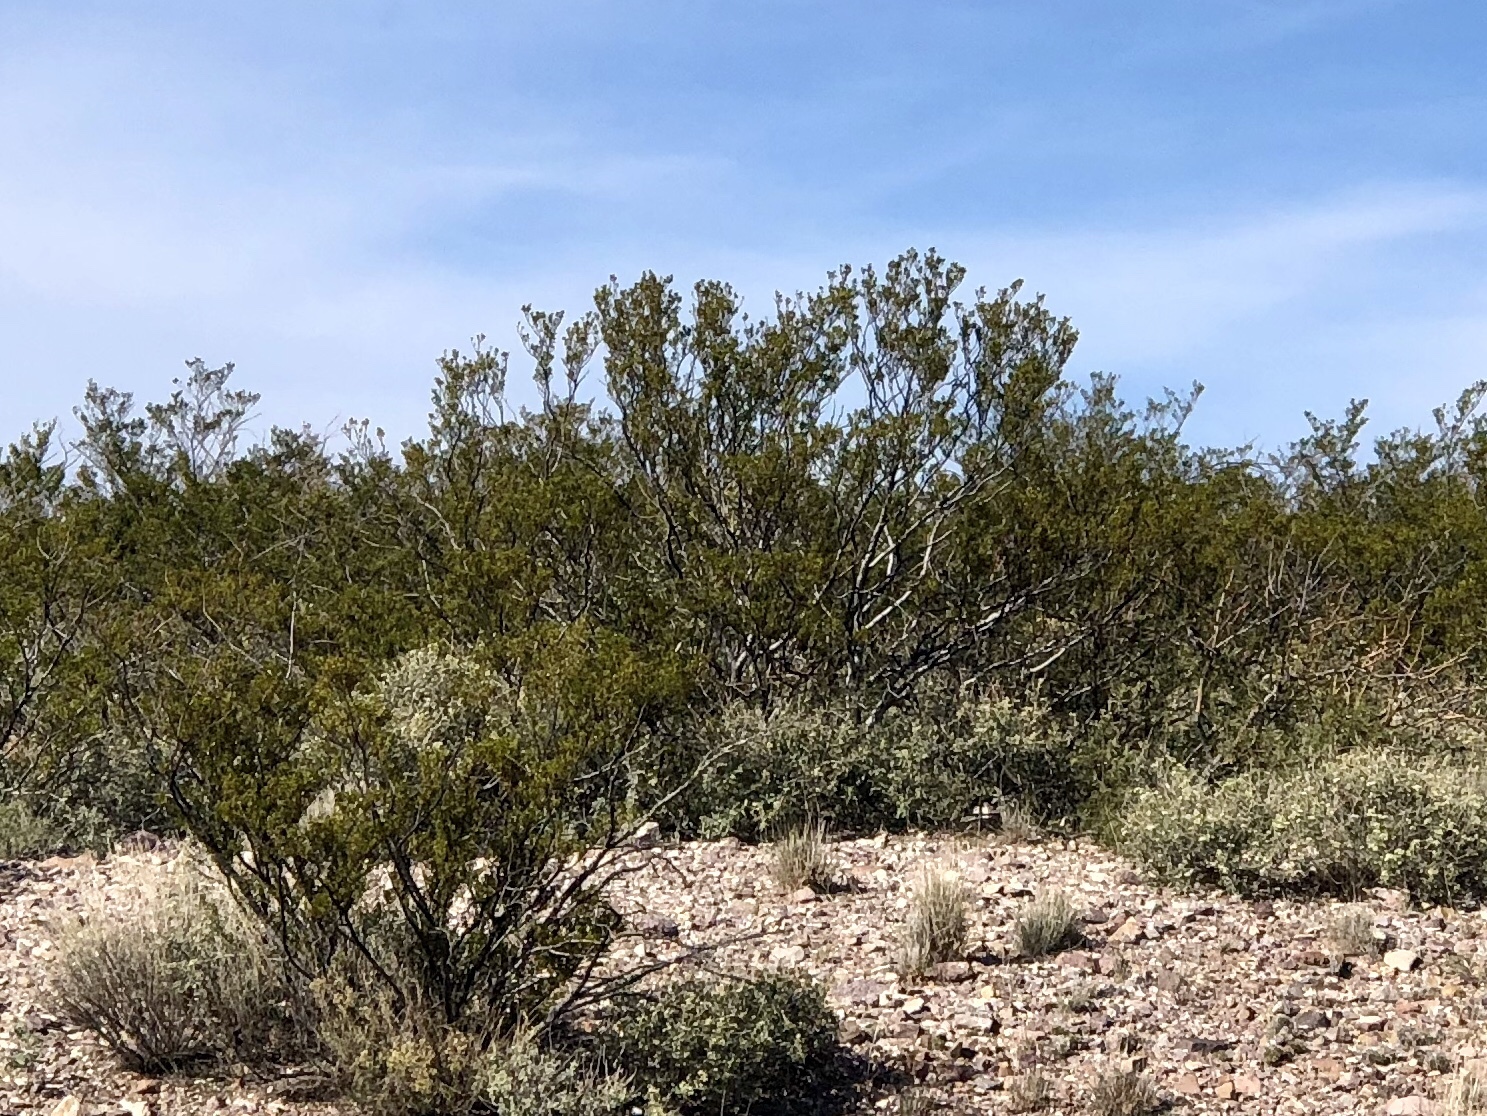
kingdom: Plantae
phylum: Tracheophyta
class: Magnoliopsida
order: Zygophyllales
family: Zygophyllaceae
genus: Larrea
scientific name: Larrea tridentata
